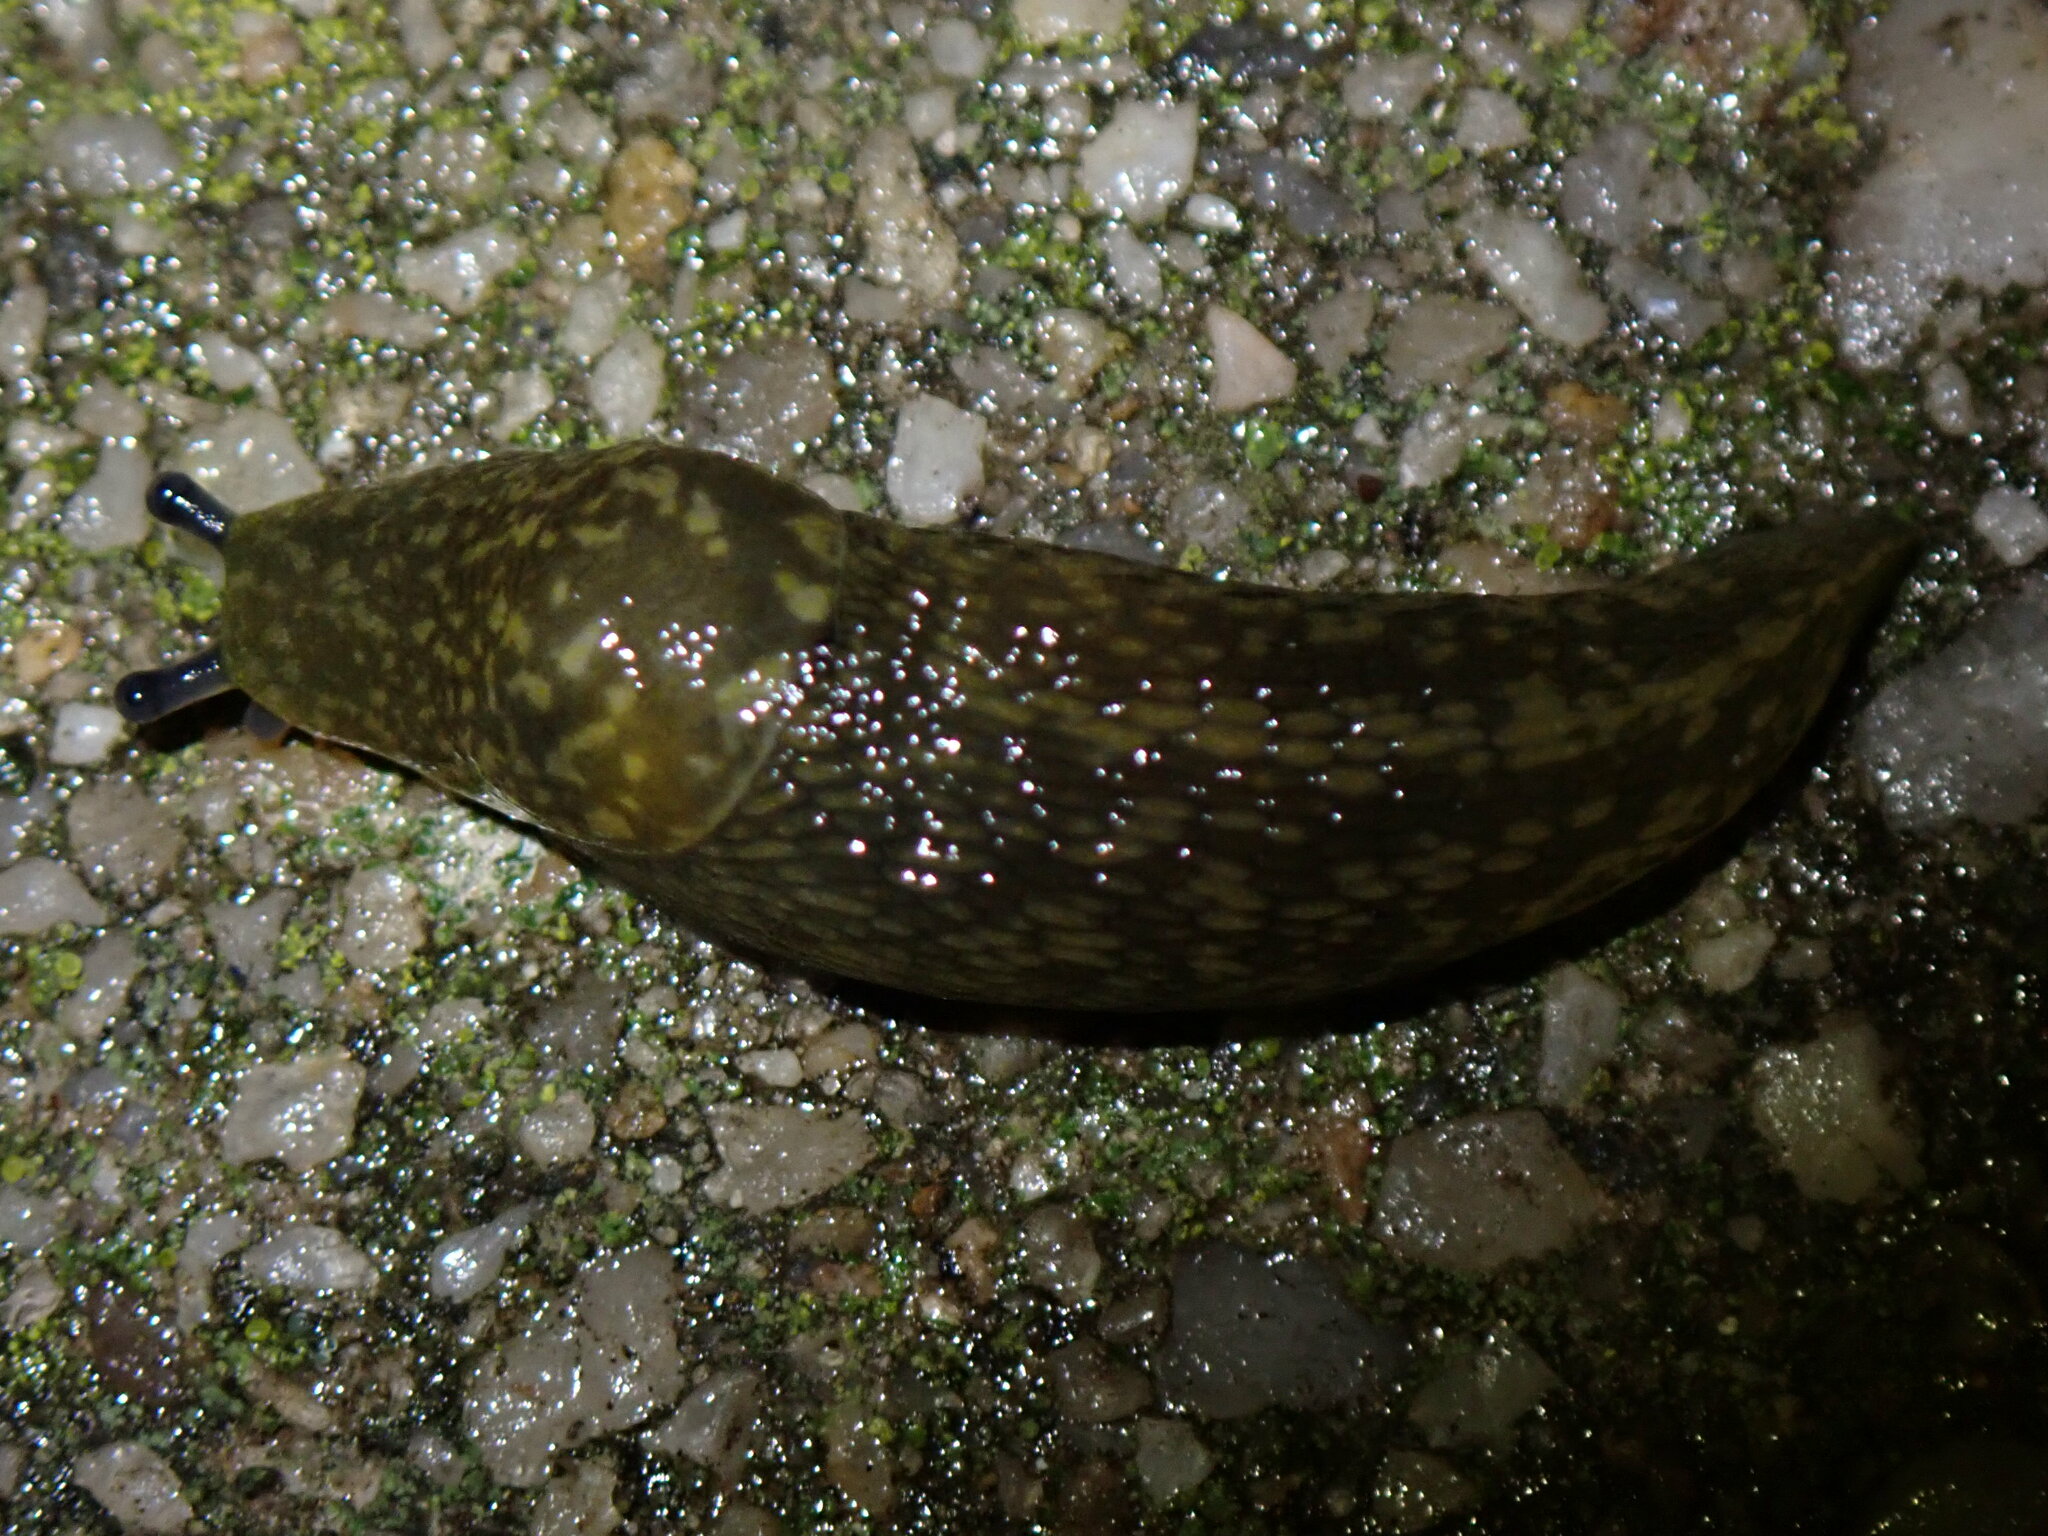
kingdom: Animalia
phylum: Mollusca
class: Gastropoda
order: Stylommatophora
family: Limacidae
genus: Limacus
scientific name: Limacus flavus
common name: Yellow gardenslug
